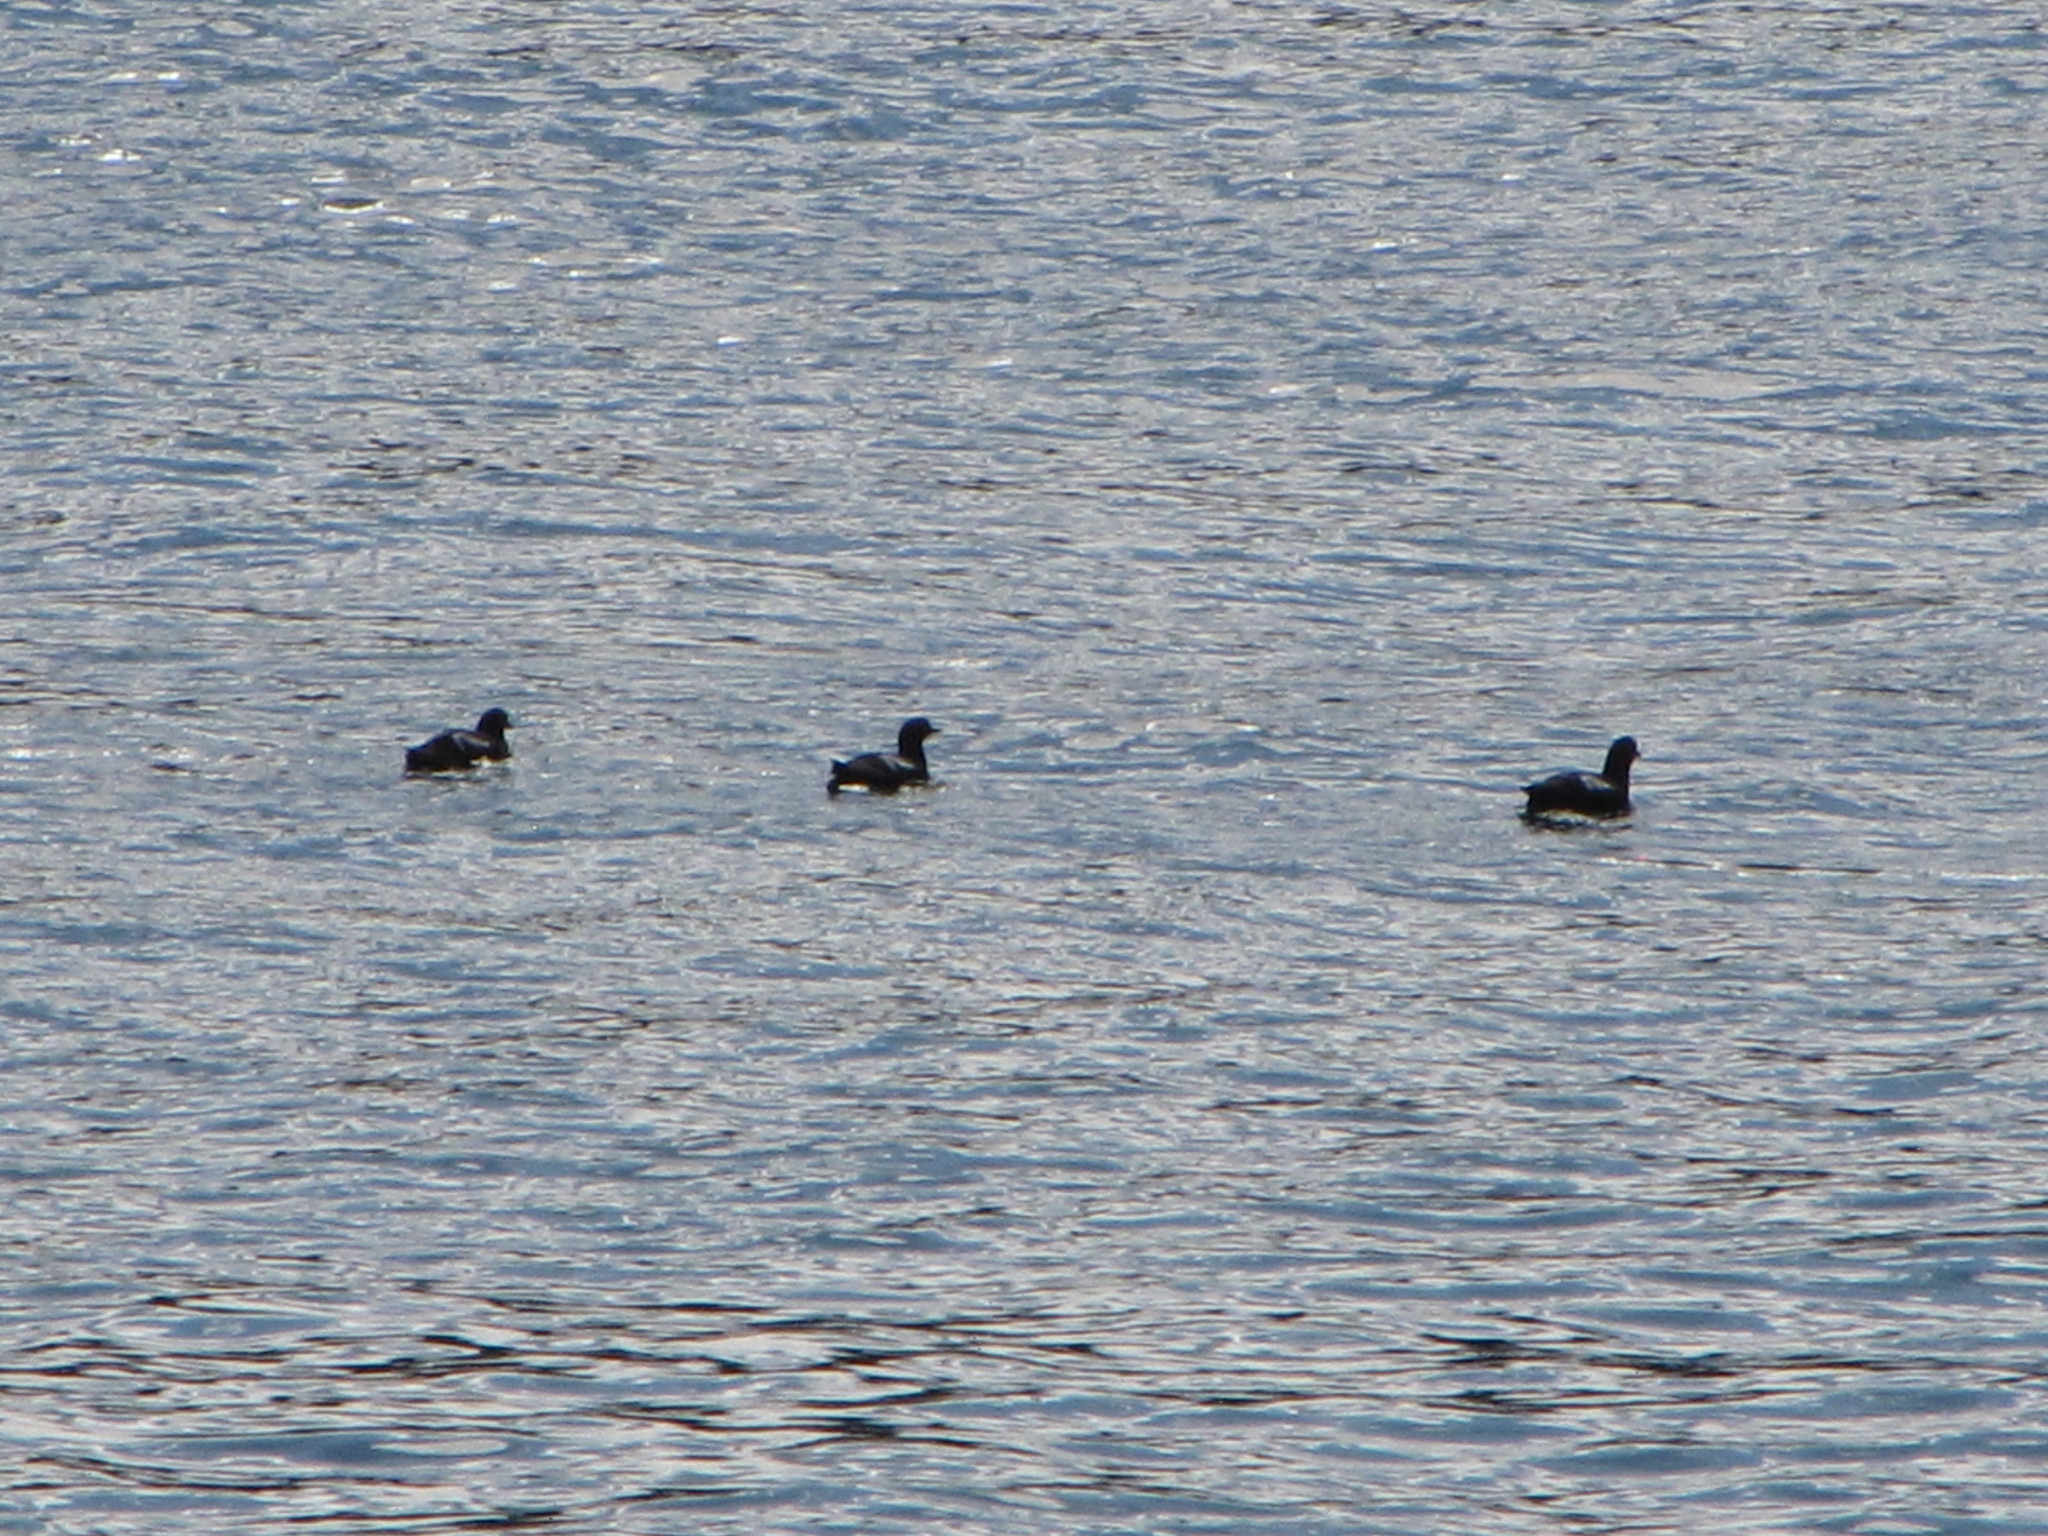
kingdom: Animalia
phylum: Chordata
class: Aves
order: Charadriiformes
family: Alcidae
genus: Cepphus
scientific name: Cepphus columba
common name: Pigeon guillemot
